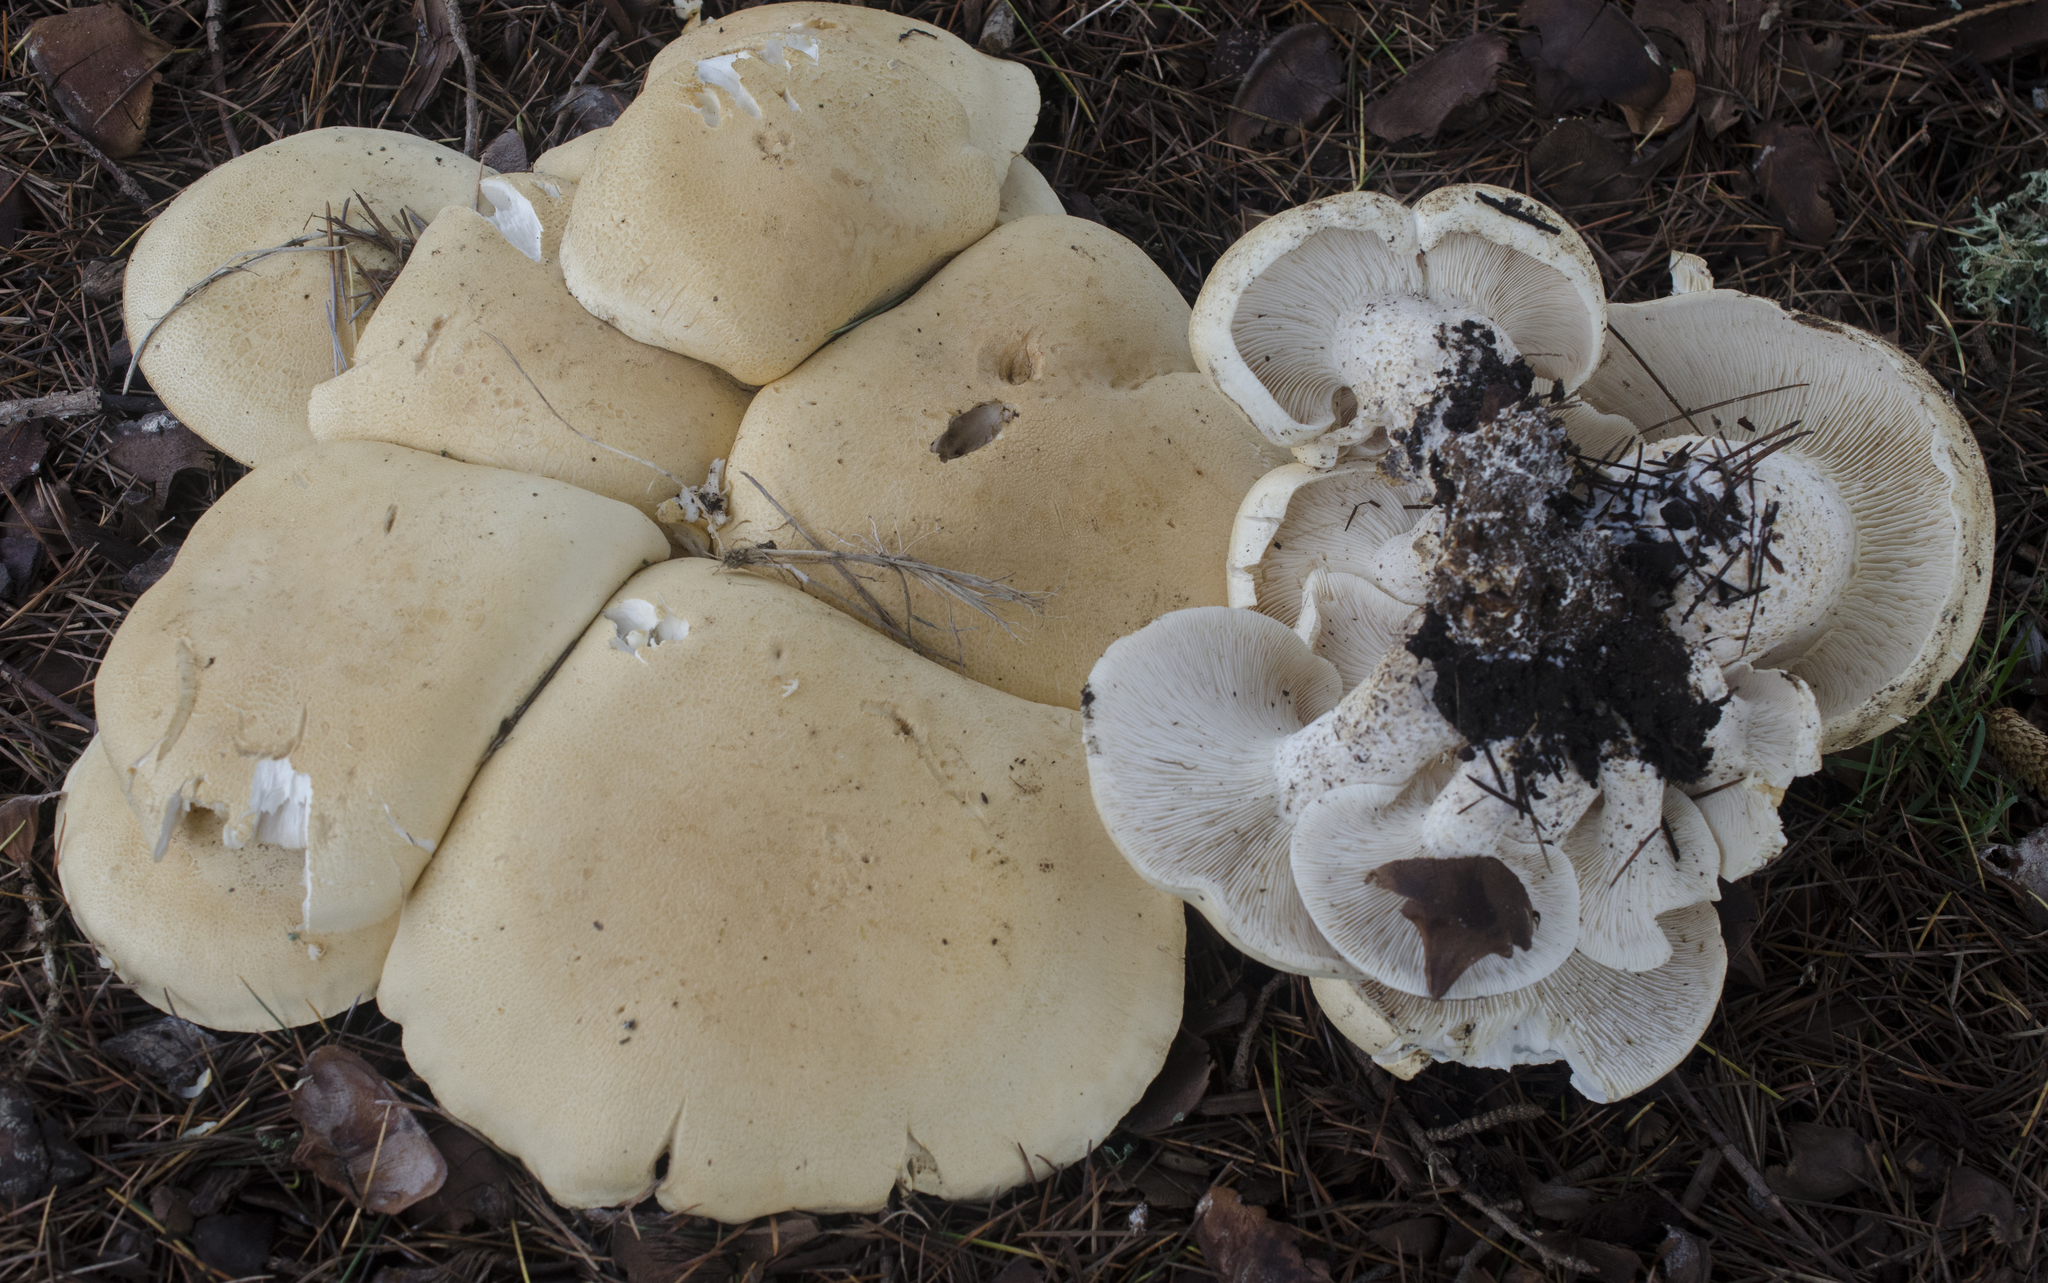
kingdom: Fungi
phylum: Basidiomycota
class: Agaricomycetes
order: Agaricales
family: Tricholomataceae
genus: Leucopaxillus
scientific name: Leucopaxillus albissimus
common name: Large white leucopax
